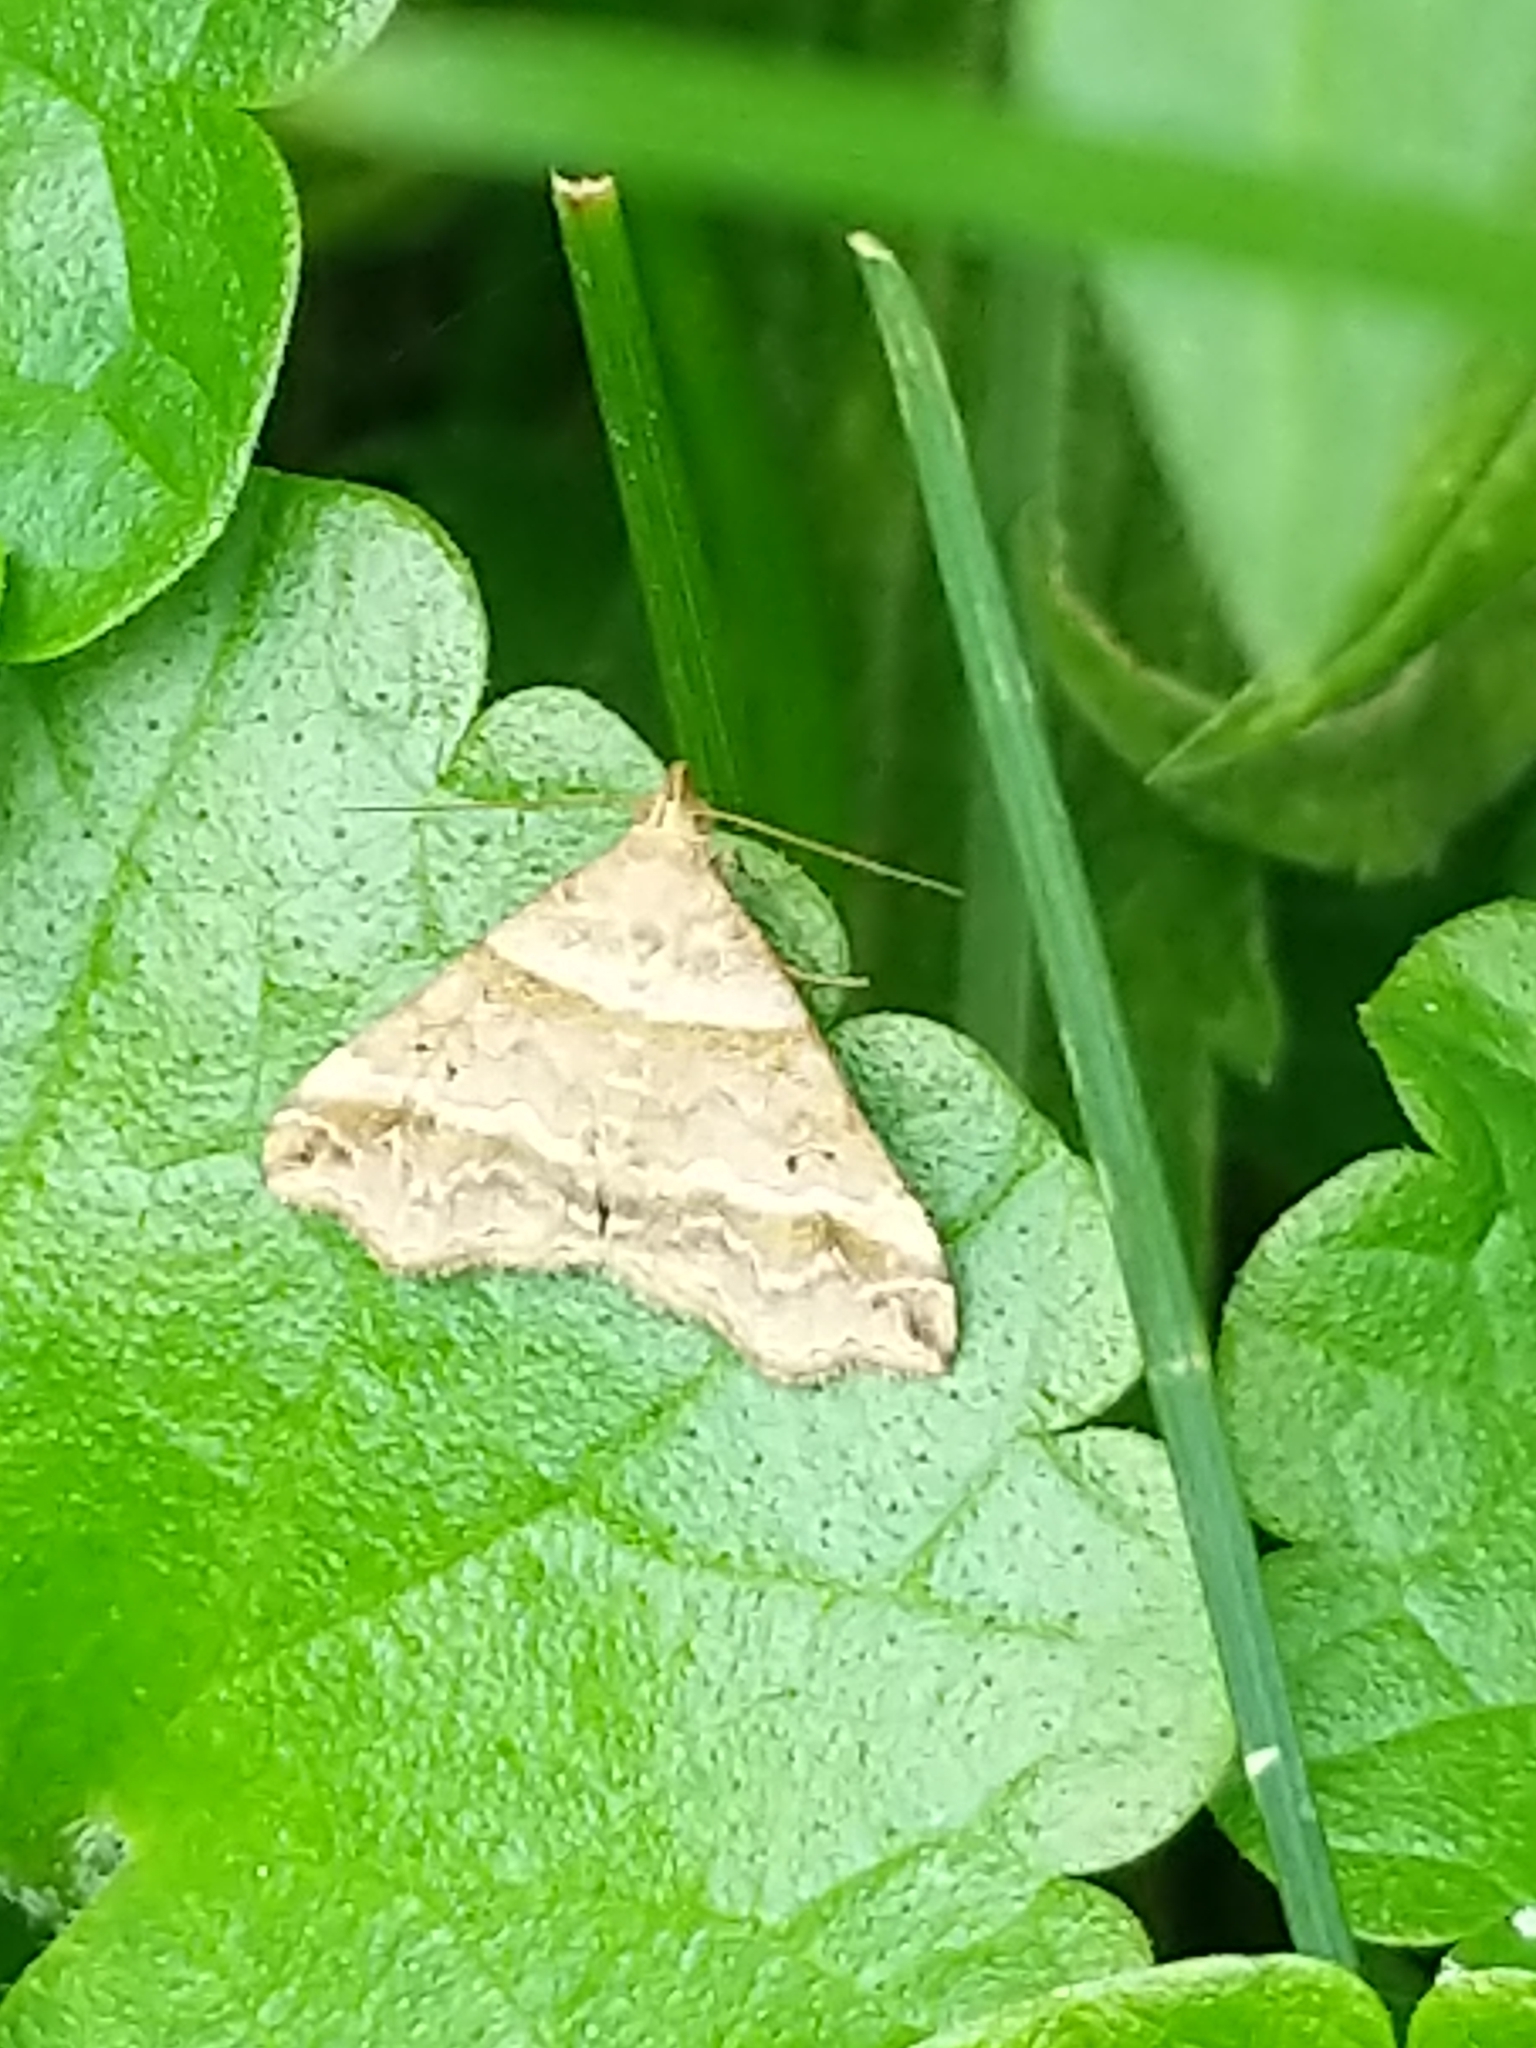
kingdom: Animalia
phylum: Arthropoda
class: Insecta
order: Lepidoptera
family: Erebidae
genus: Phaeolita
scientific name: Phaeolita pyramusalis
